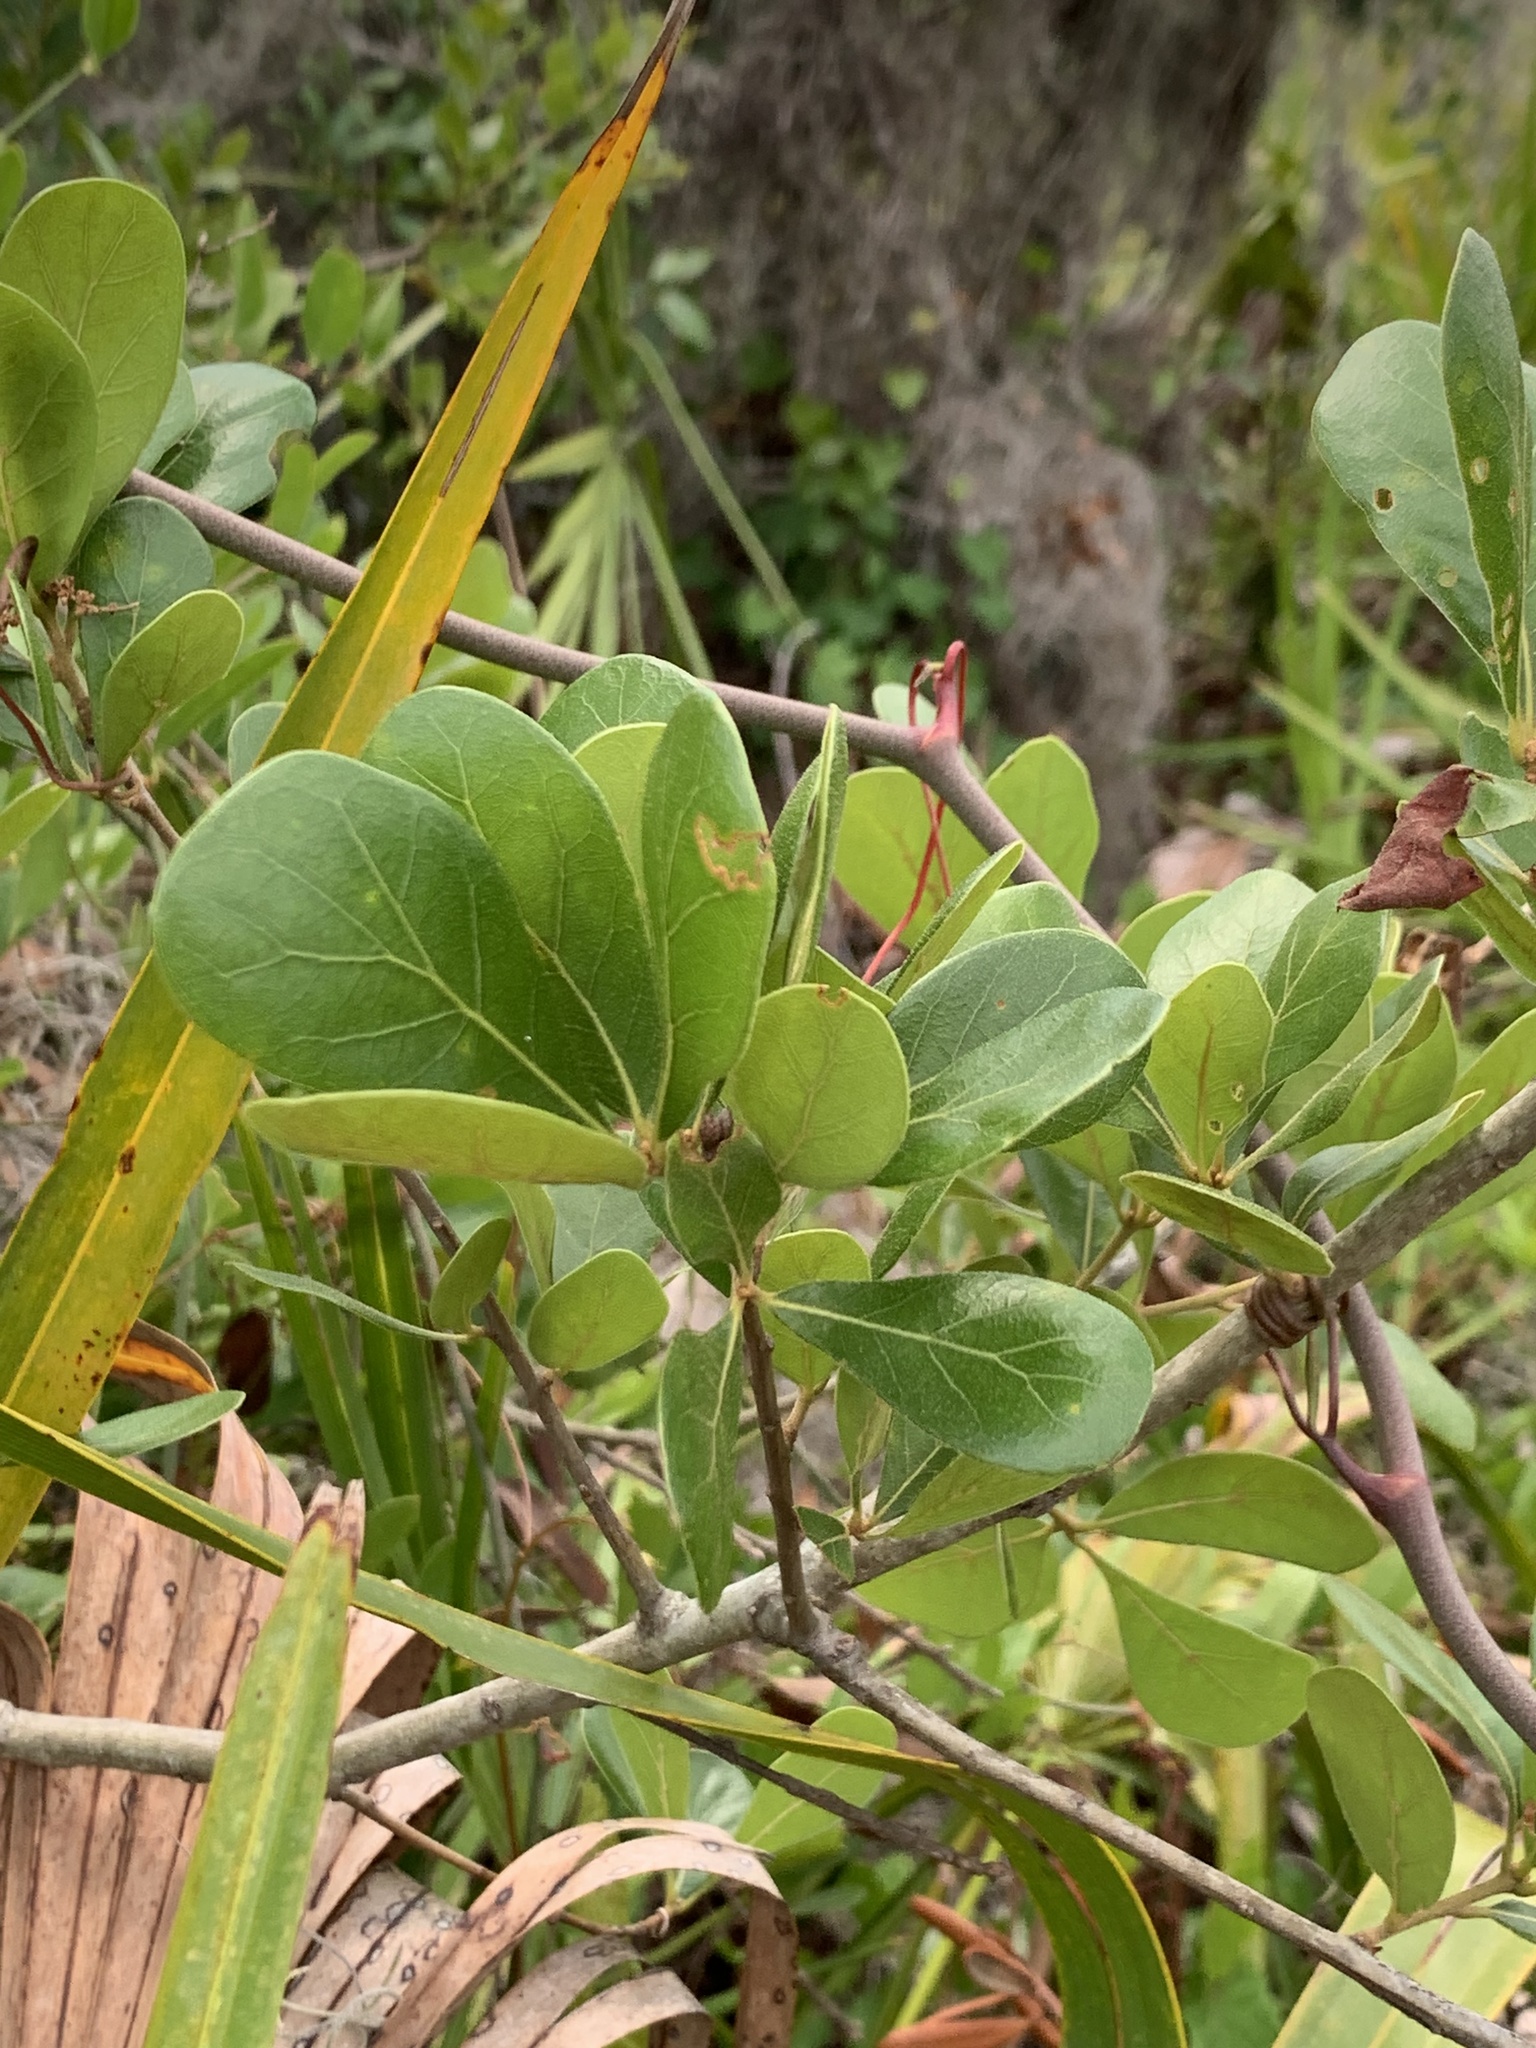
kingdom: Plantae
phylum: Tracheophyta
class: Magnoliopsida
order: Fagales
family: Fagaceae
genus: Quercus
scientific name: Quercus myrtifolia
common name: Myrtle oak
